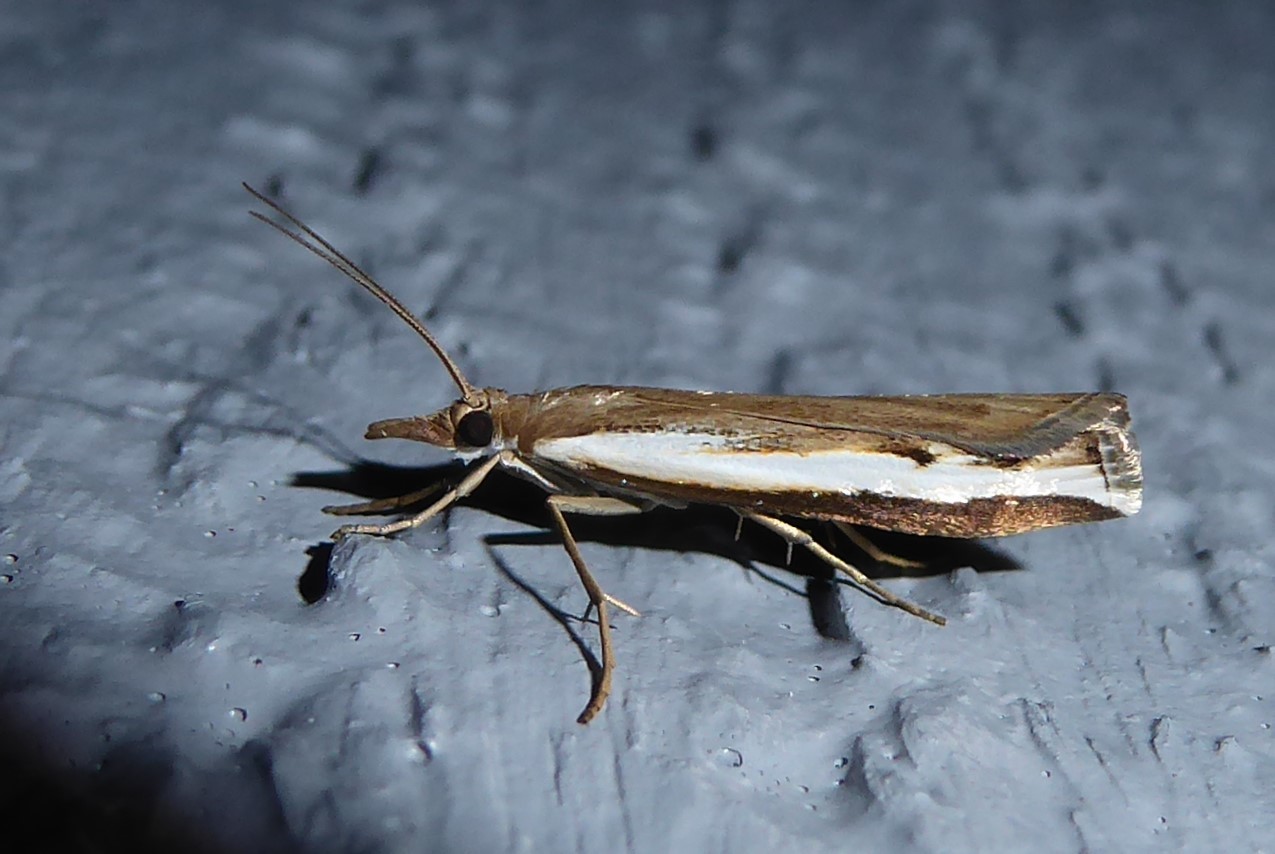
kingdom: Animalia
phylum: Arthropoda
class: Insecta
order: Lepidoptera
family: Crambidae
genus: Orocrambus
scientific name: Orocrambus flexuosellus
